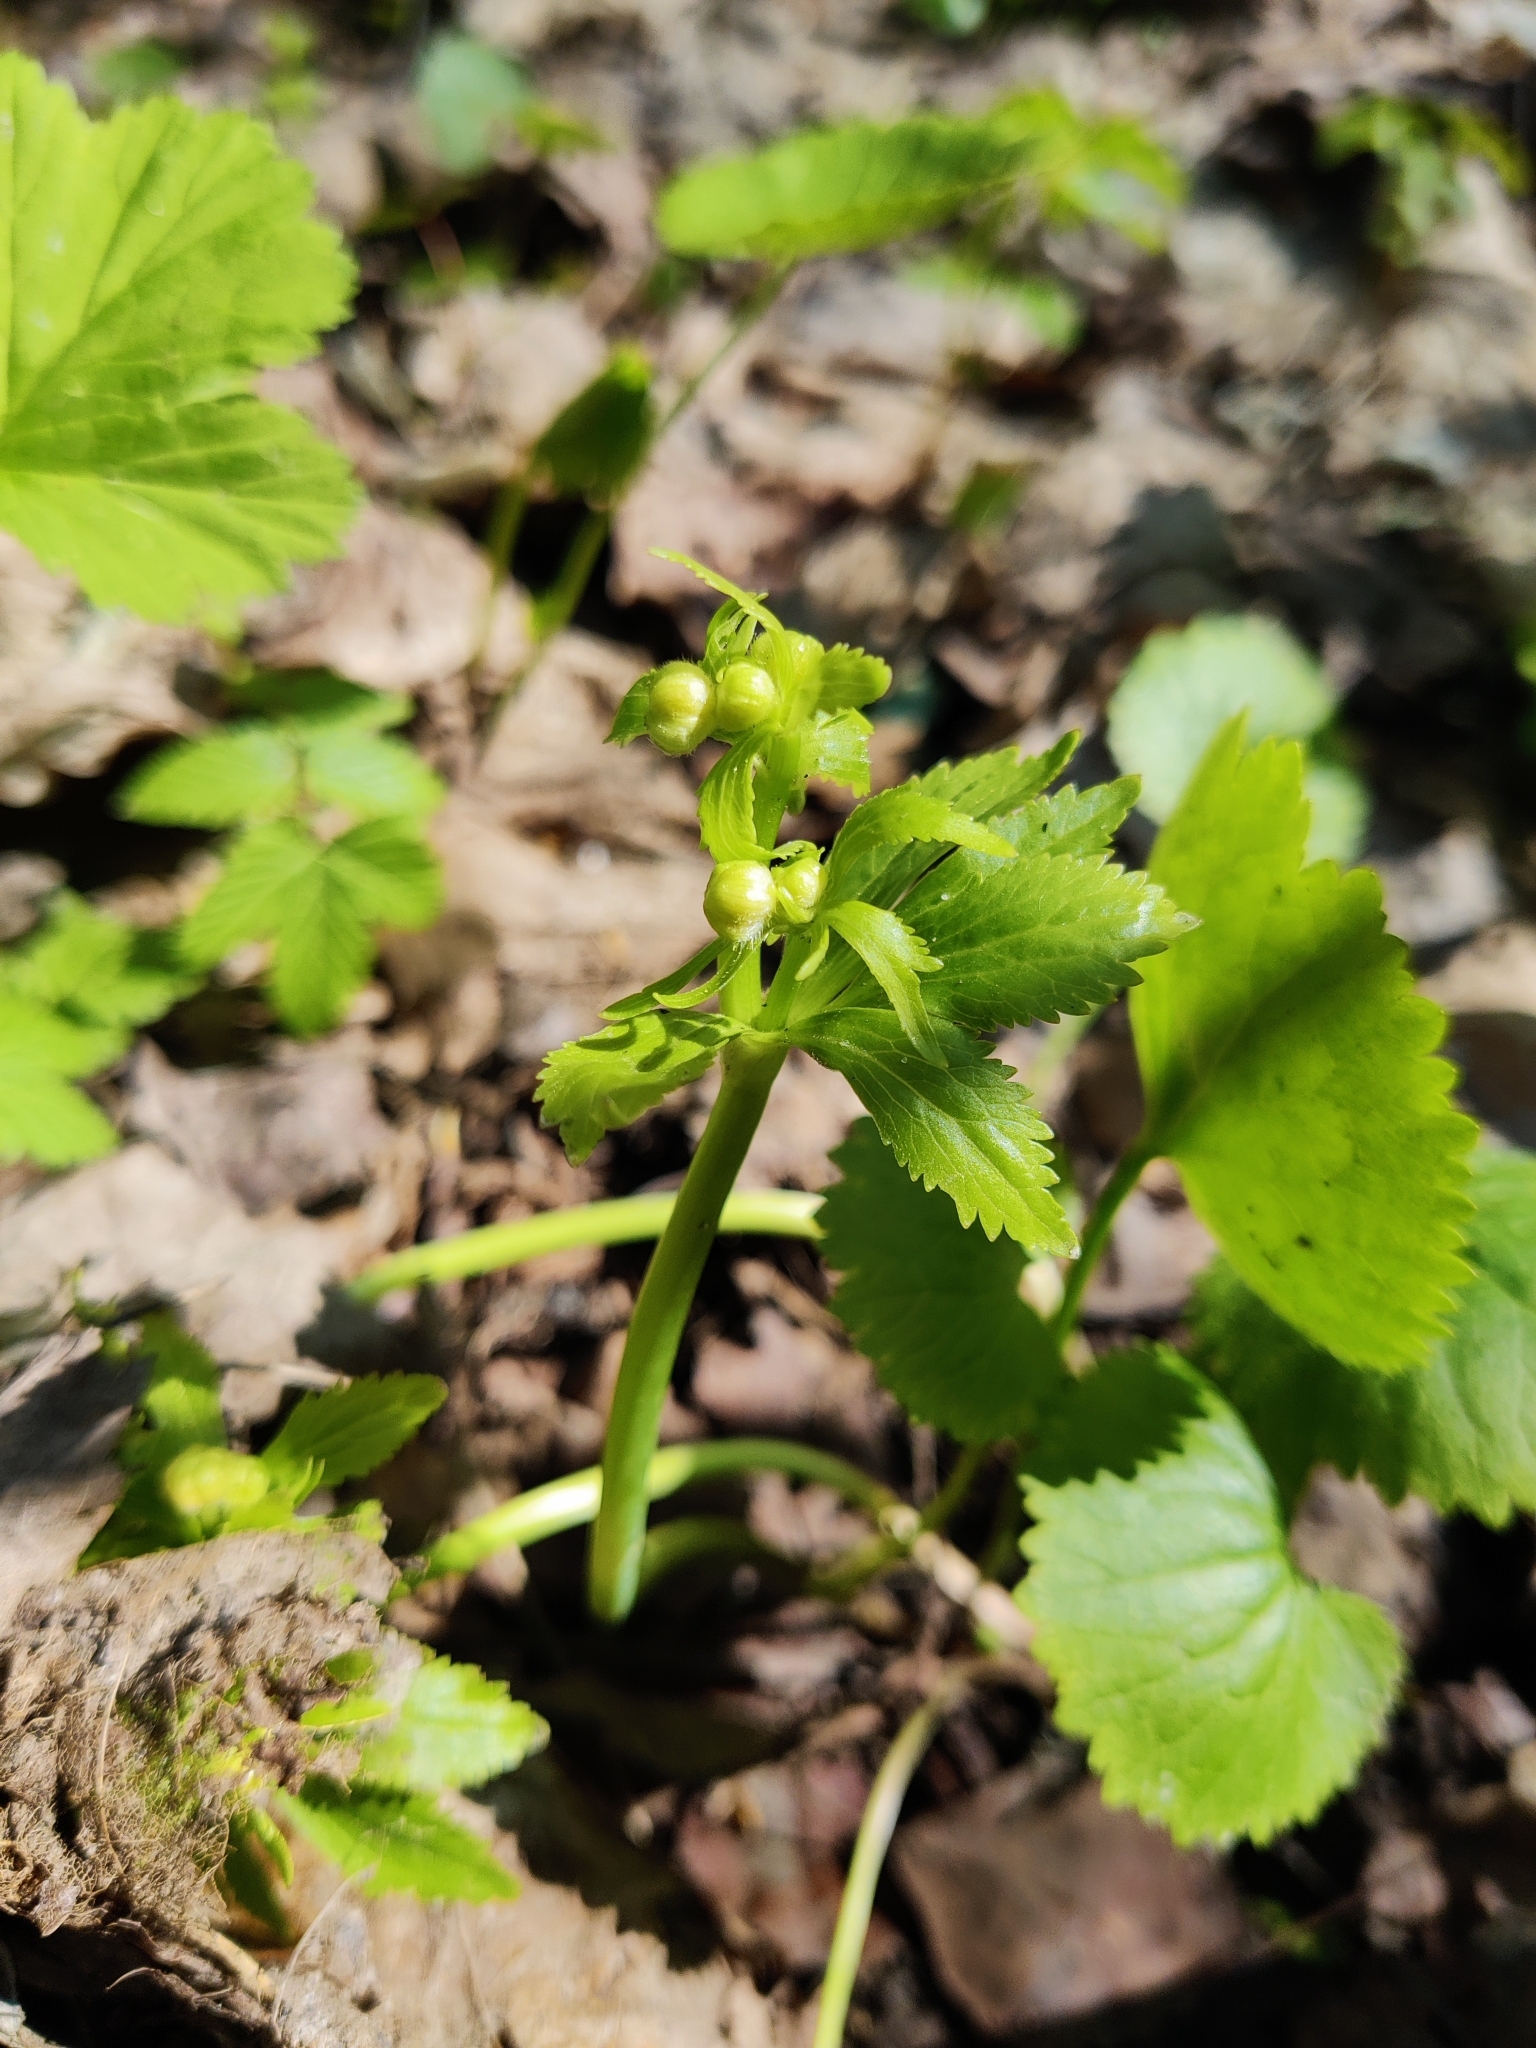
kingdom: Plantae
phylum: Tracheophyta
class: Magnoliopsida
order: Ranunculales
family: Ranunculaceae
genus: Ranunculus
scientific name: Ranunculus cassubicus
